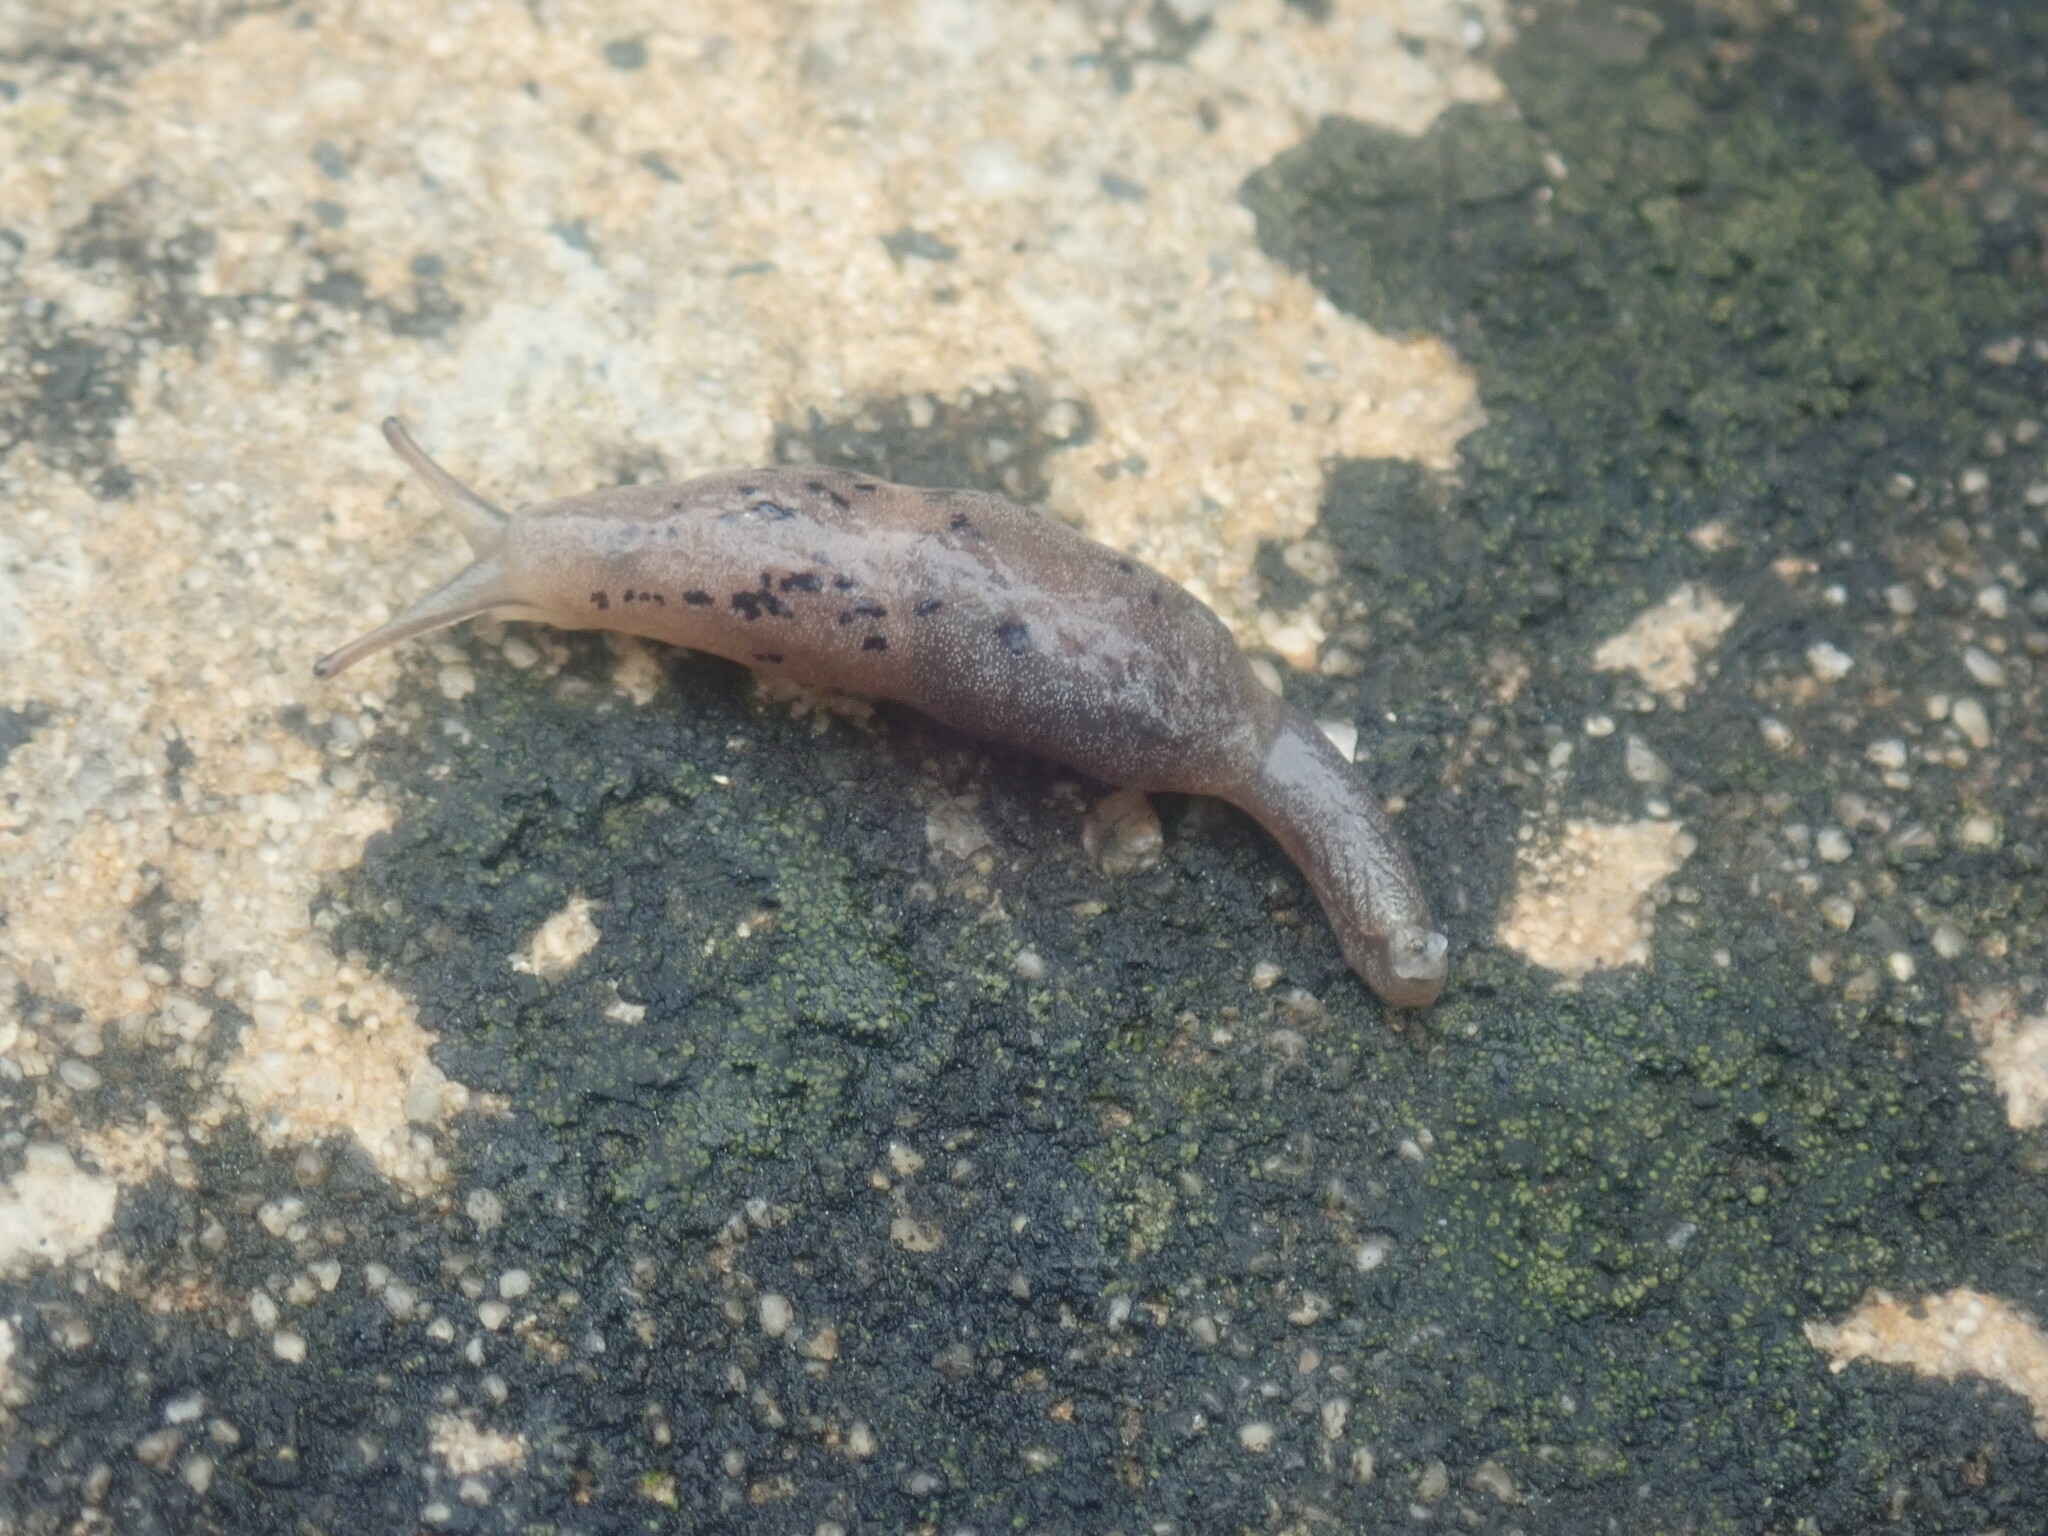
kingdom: Animalia
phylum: Mollusca
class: Gastropoda
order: Stylommatophora
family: Cystopeltidae
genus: Cystopelta
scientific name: Cystopelta purpurea
